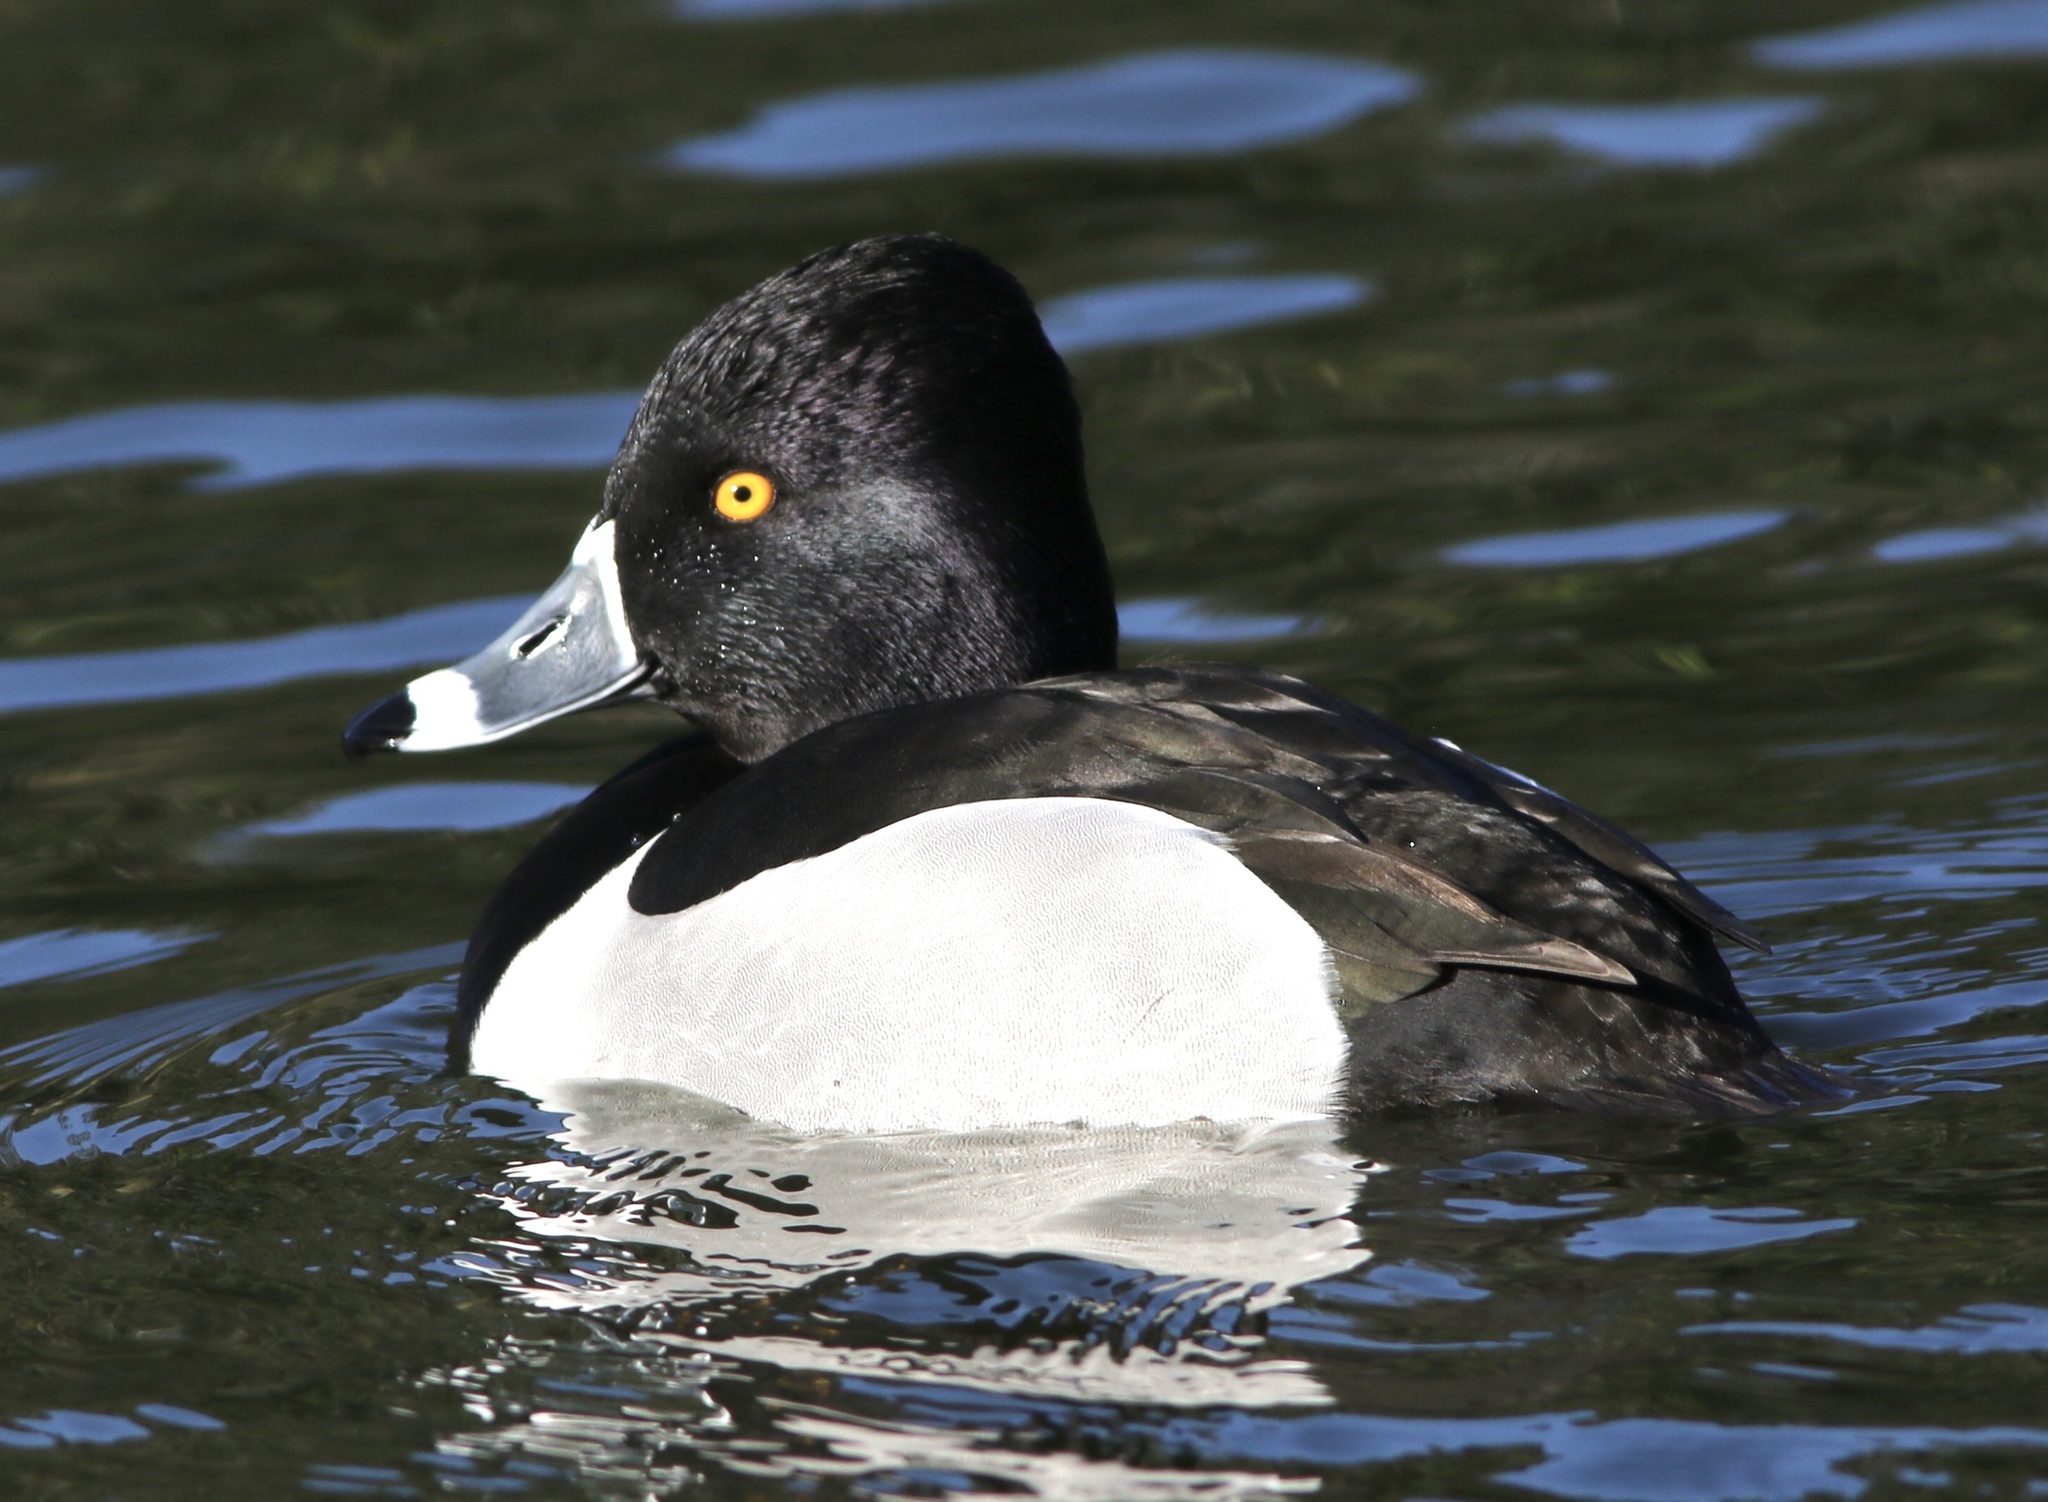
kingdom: Animalia
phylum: Chordata
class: Aves
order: Anseriformes
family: Anatidae
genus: Aythya
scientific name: Aythya collaris
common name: Ring-necked duck
